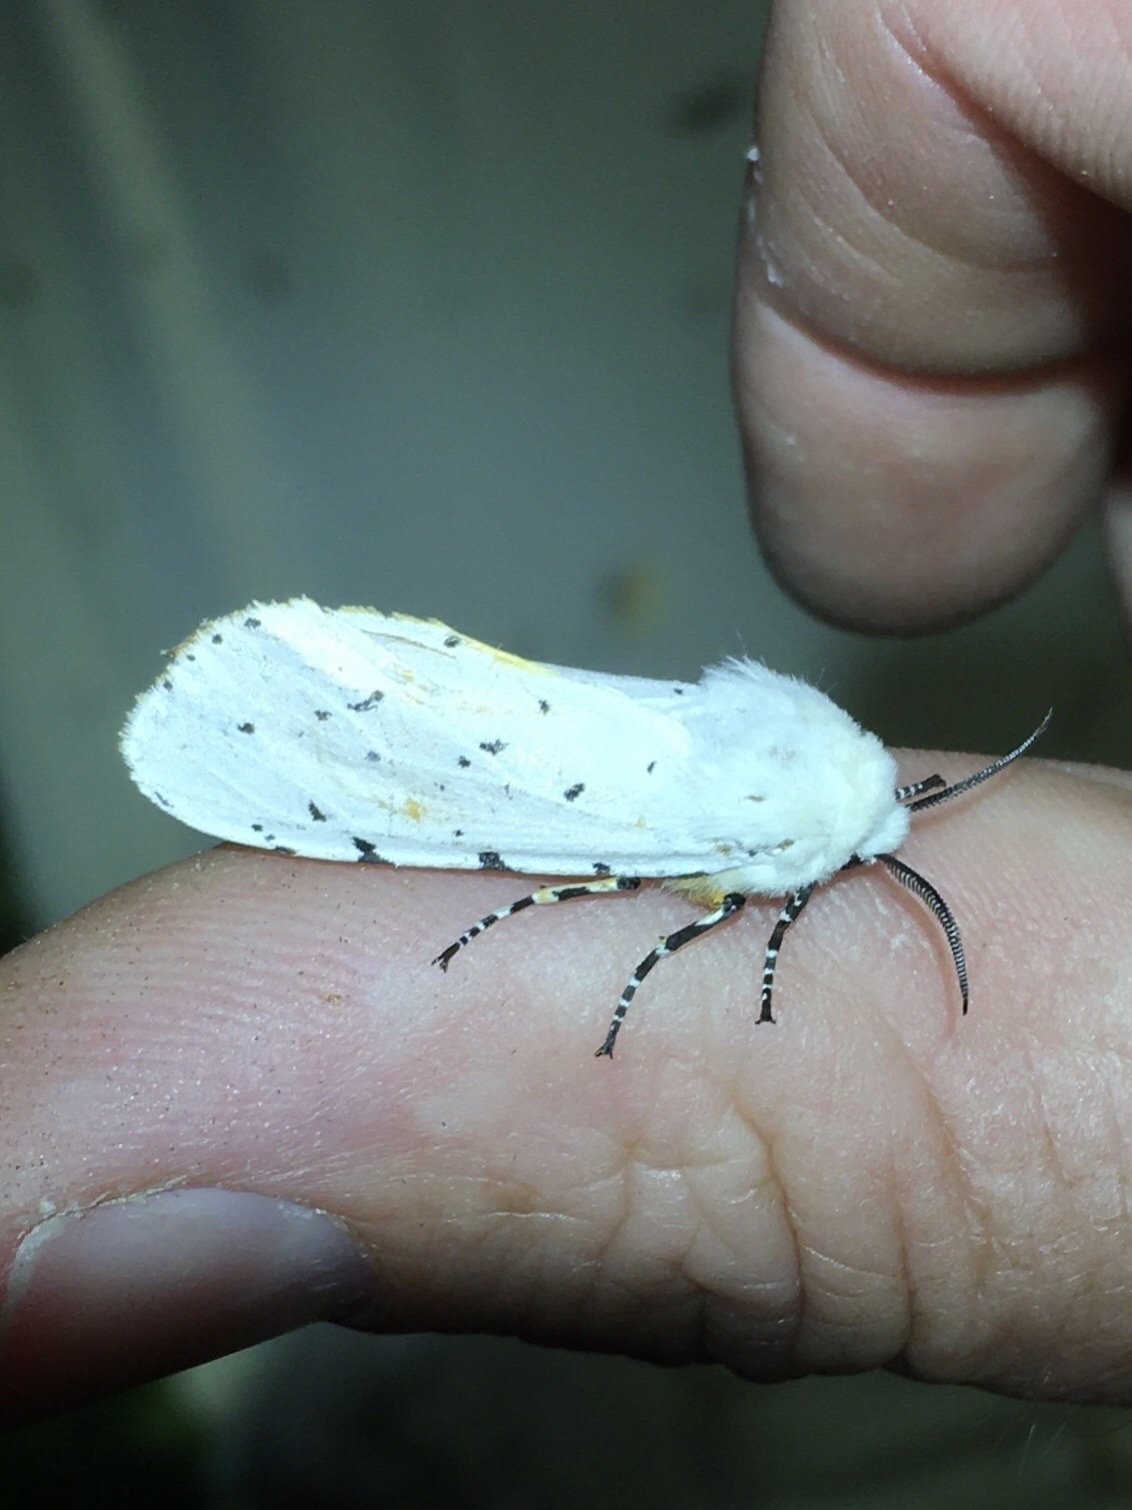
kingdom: Animalia
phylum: Arthropoda
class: Insecta
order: Lepidoptera
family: Erebidae
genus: Estigmene
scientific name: Estigmene acrea
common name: Salt marsh moth
